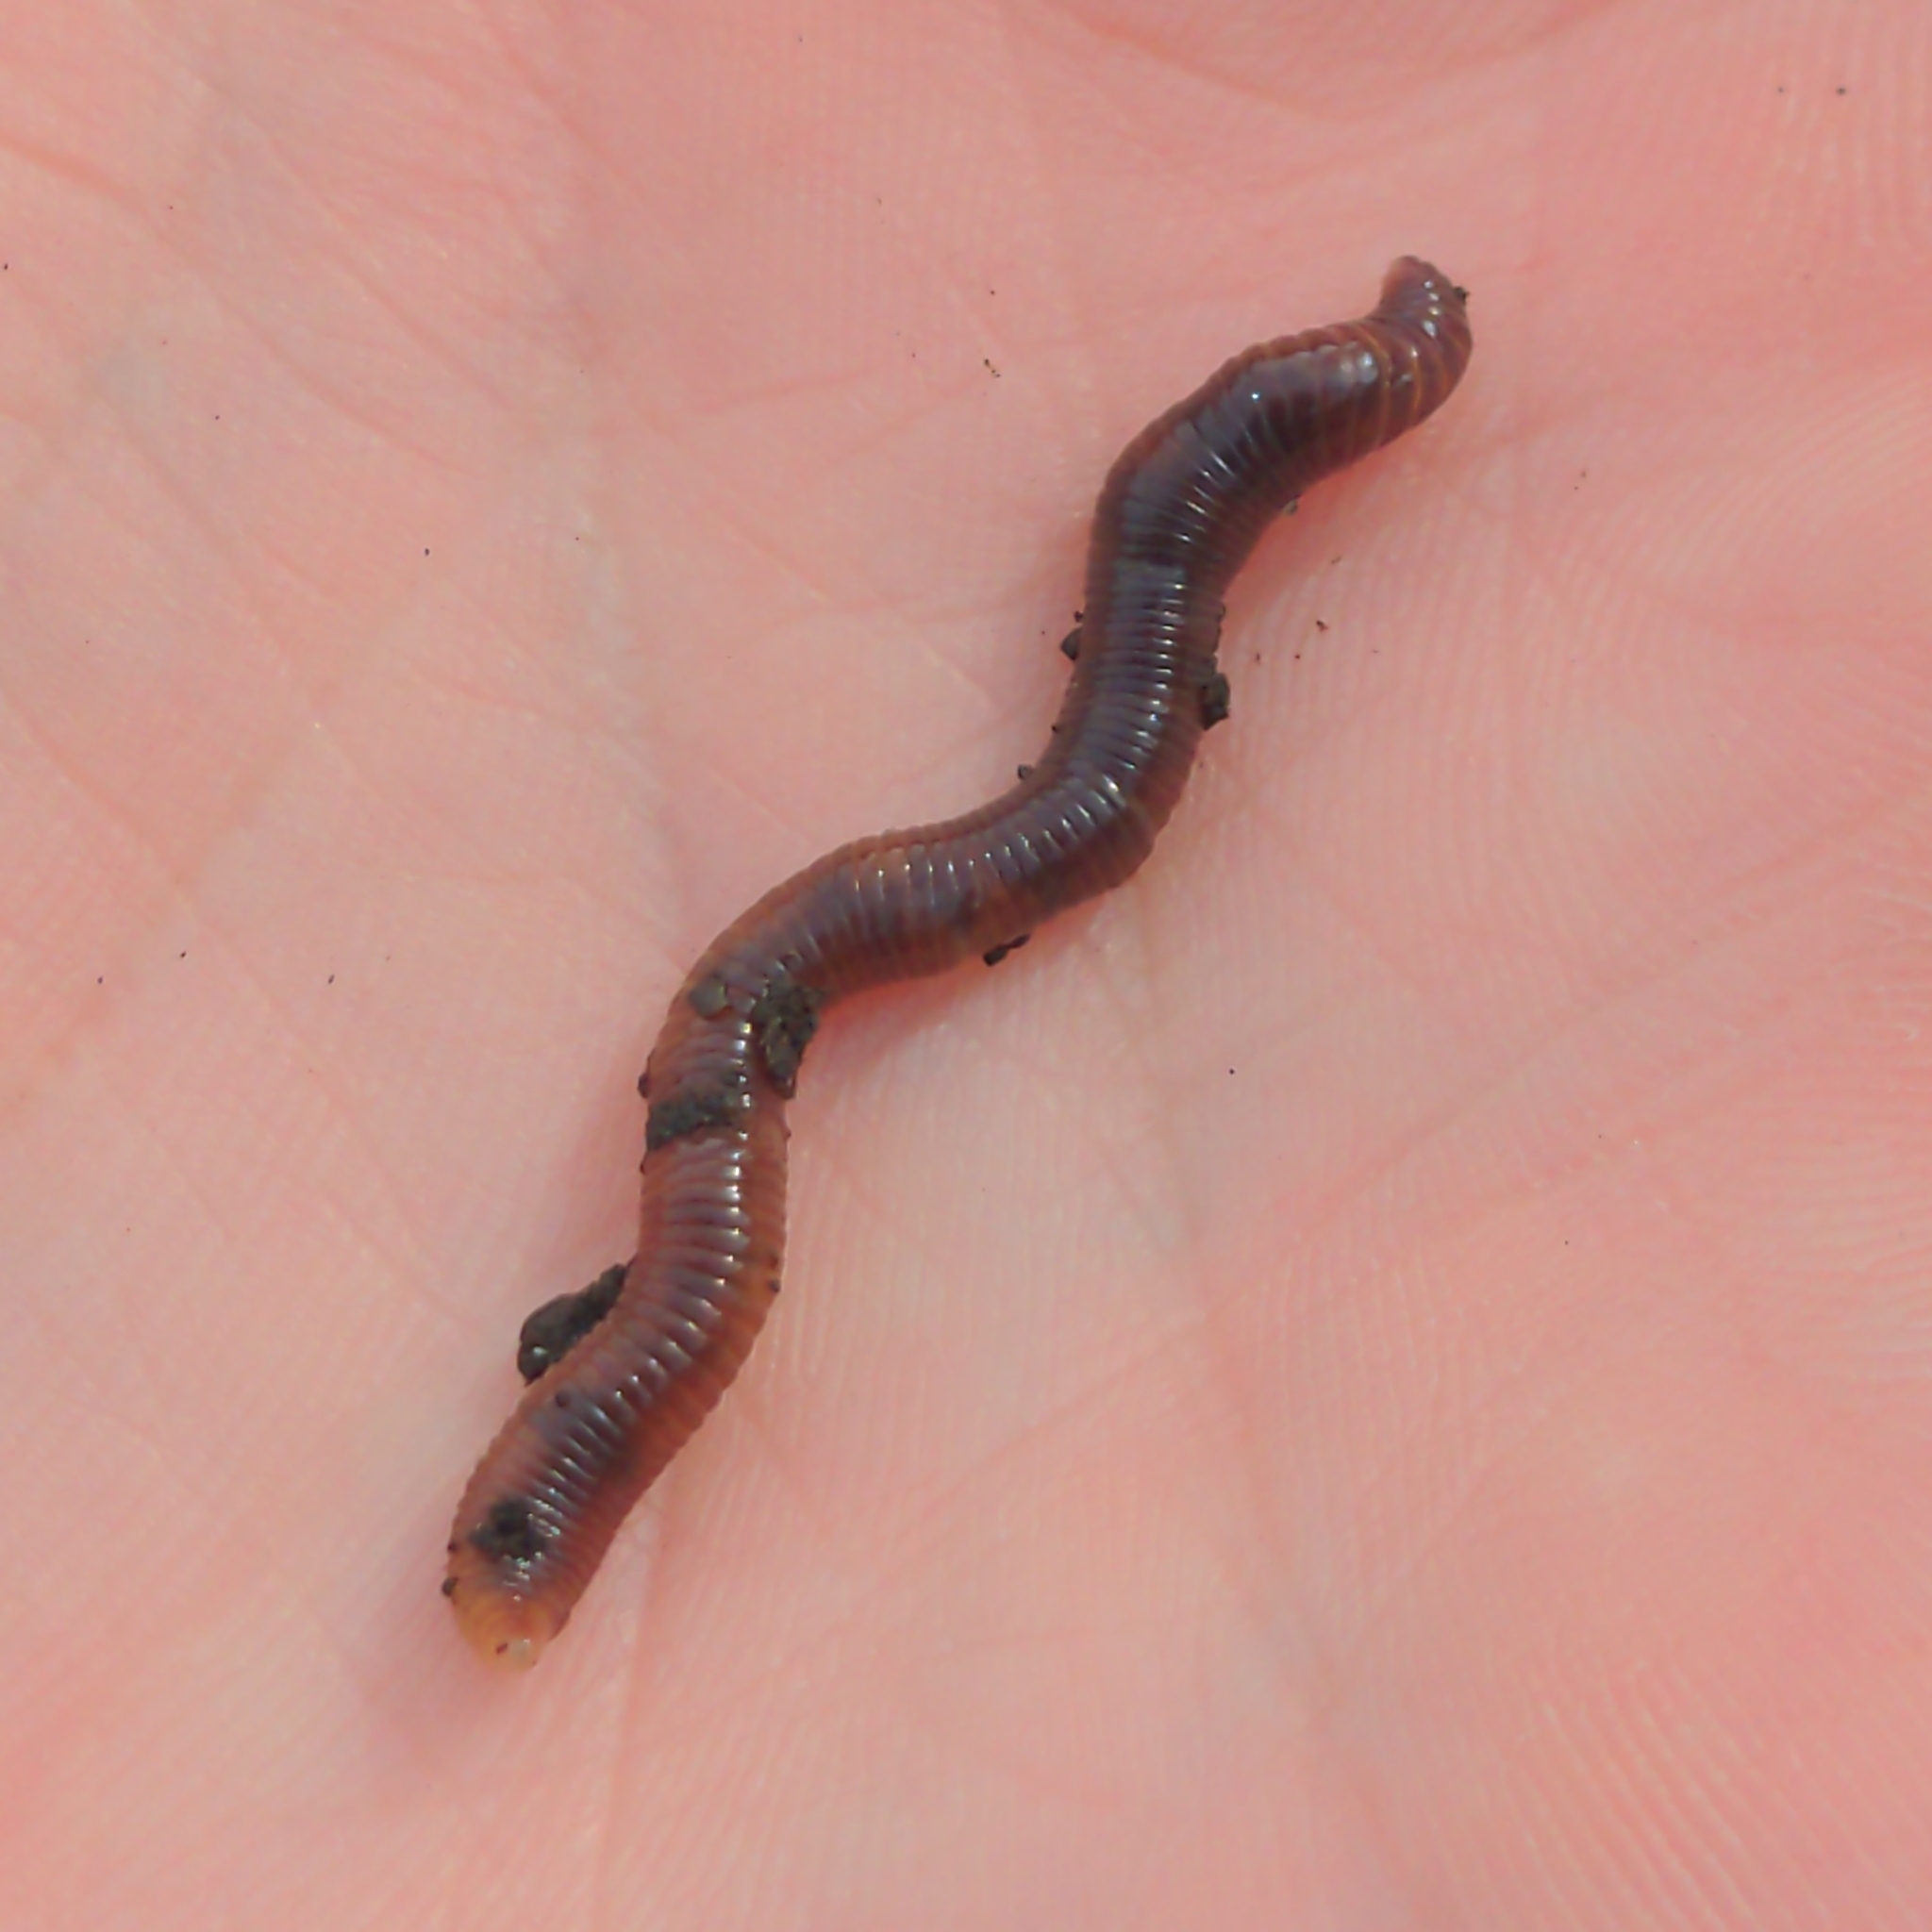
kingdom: Animalia
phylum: Annelida
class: Clitellata
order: Crassiclitellata
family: Lumbricidae
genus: Lumbricus
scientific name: Lumbricus terrestris
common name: Common earthworm
